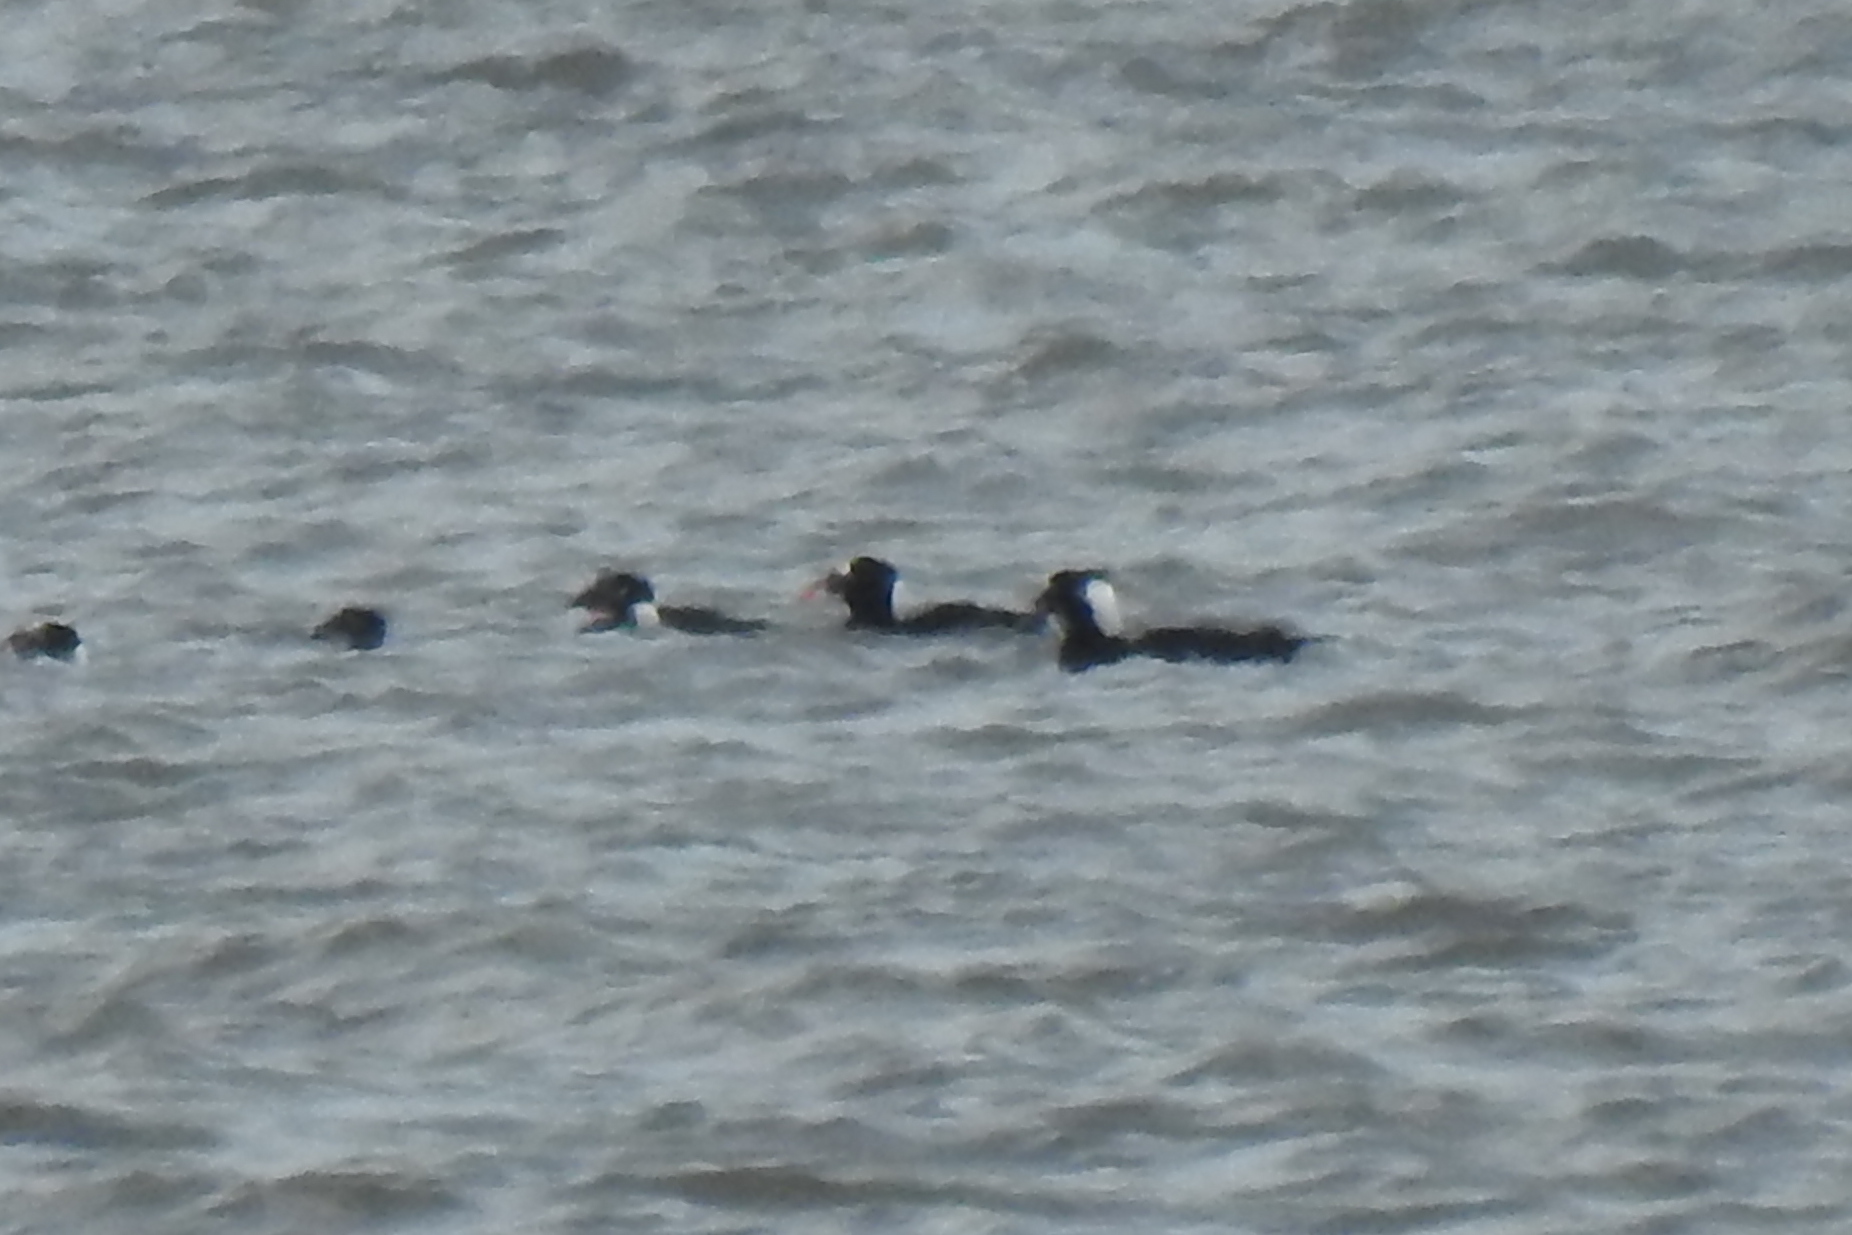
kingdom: Animalia
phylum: Chordata
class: Aves
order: Anseriformes
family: Anatidae
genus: Melanitta
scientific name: Melanitta perspicillata
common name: Surf scoter
